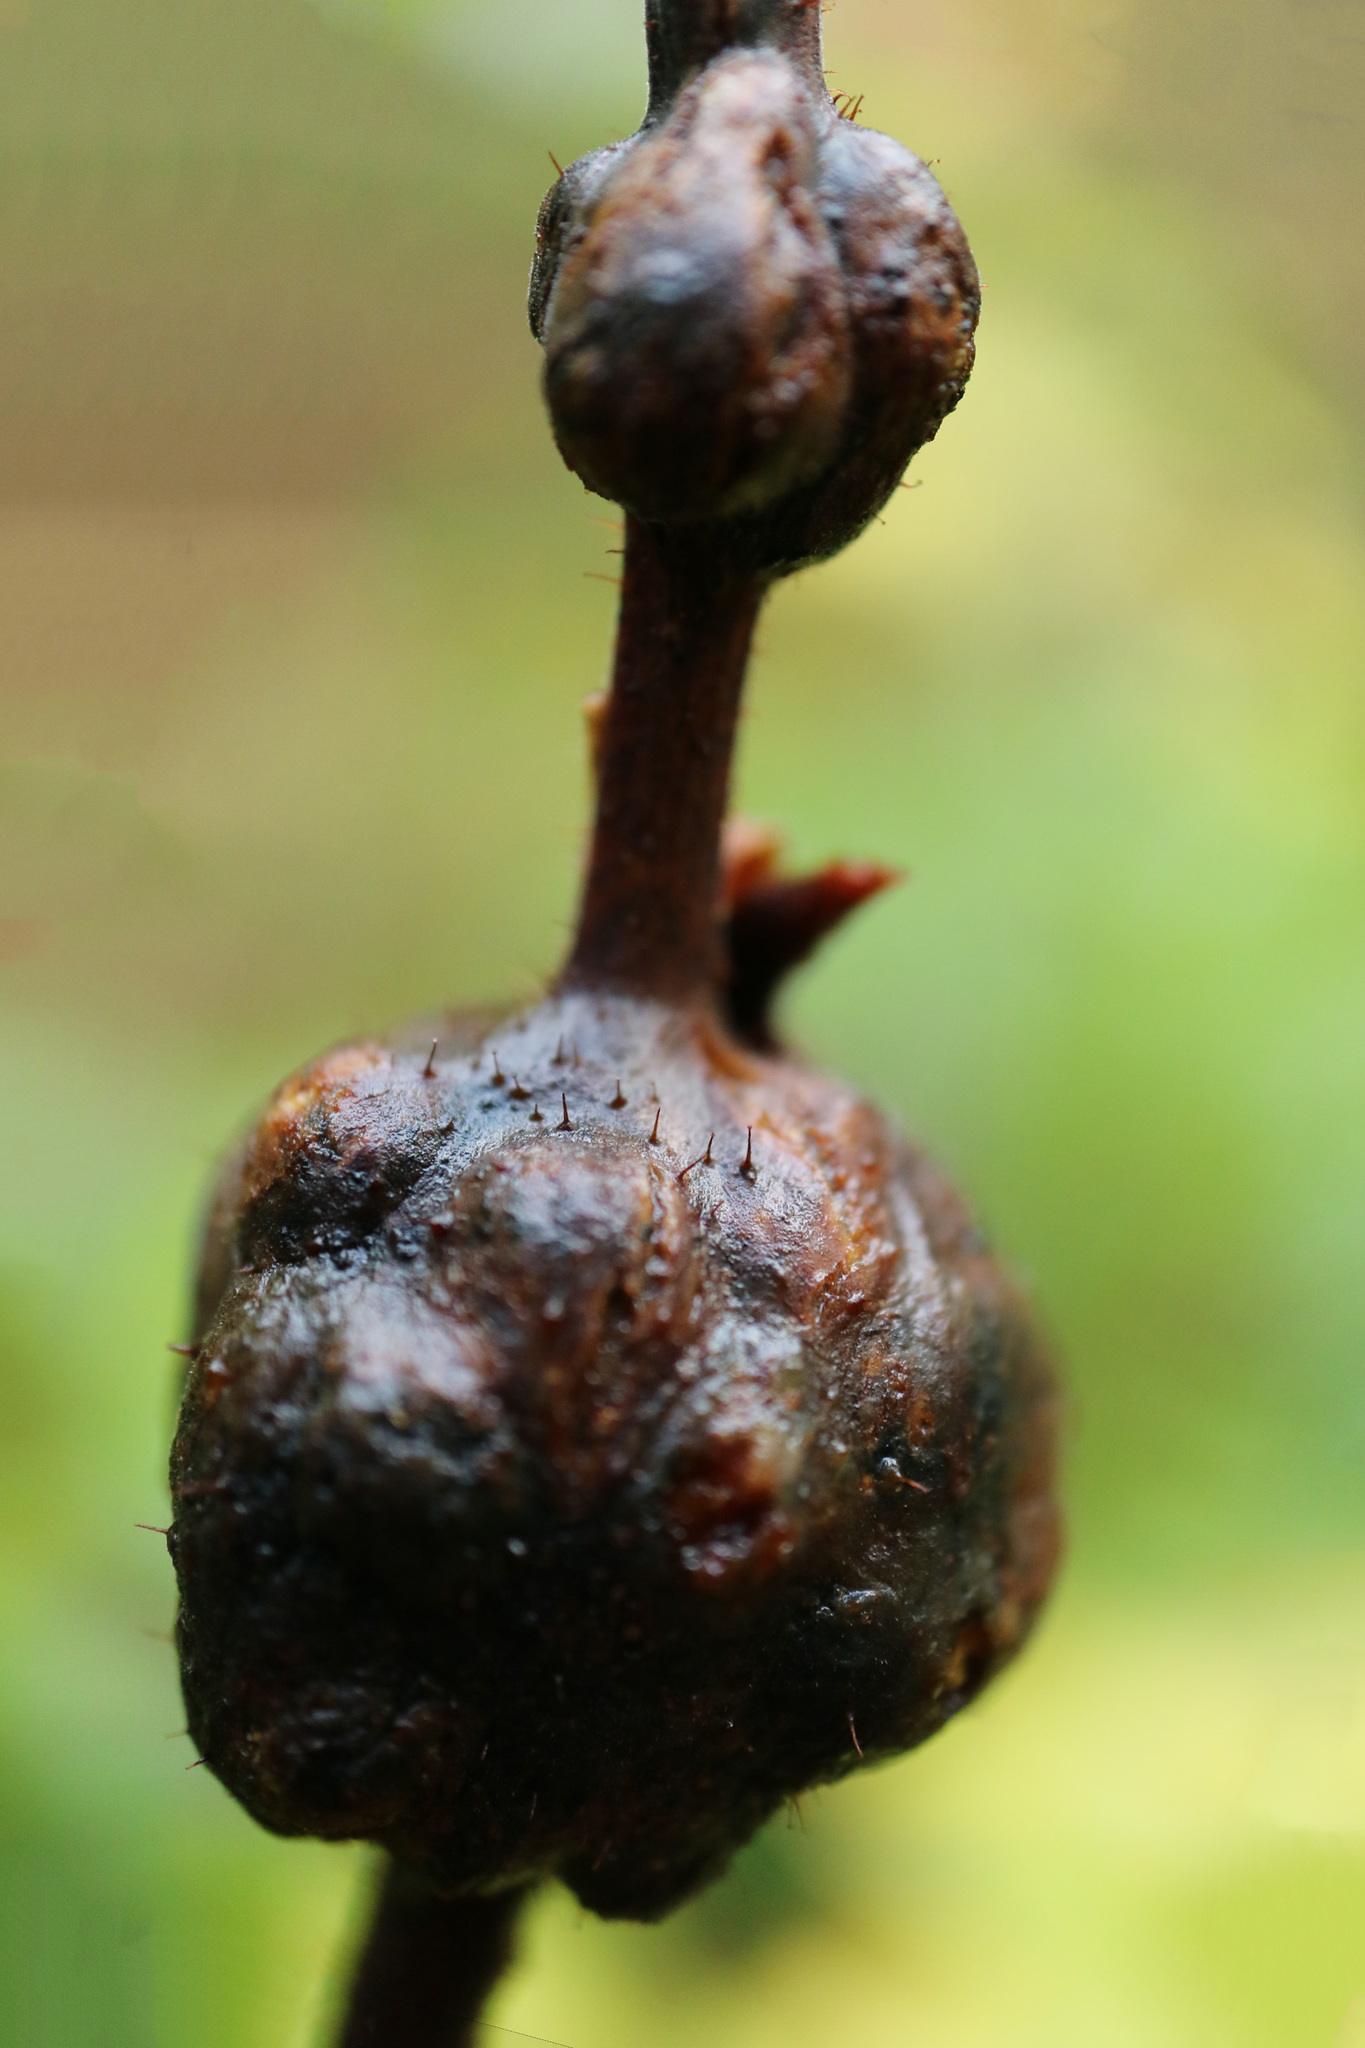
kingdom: Animalia
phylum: Arthropoda
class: Insecta
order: Hymenoptera
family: Cynipidae
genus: Diastrophus
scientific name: Diastrophus
